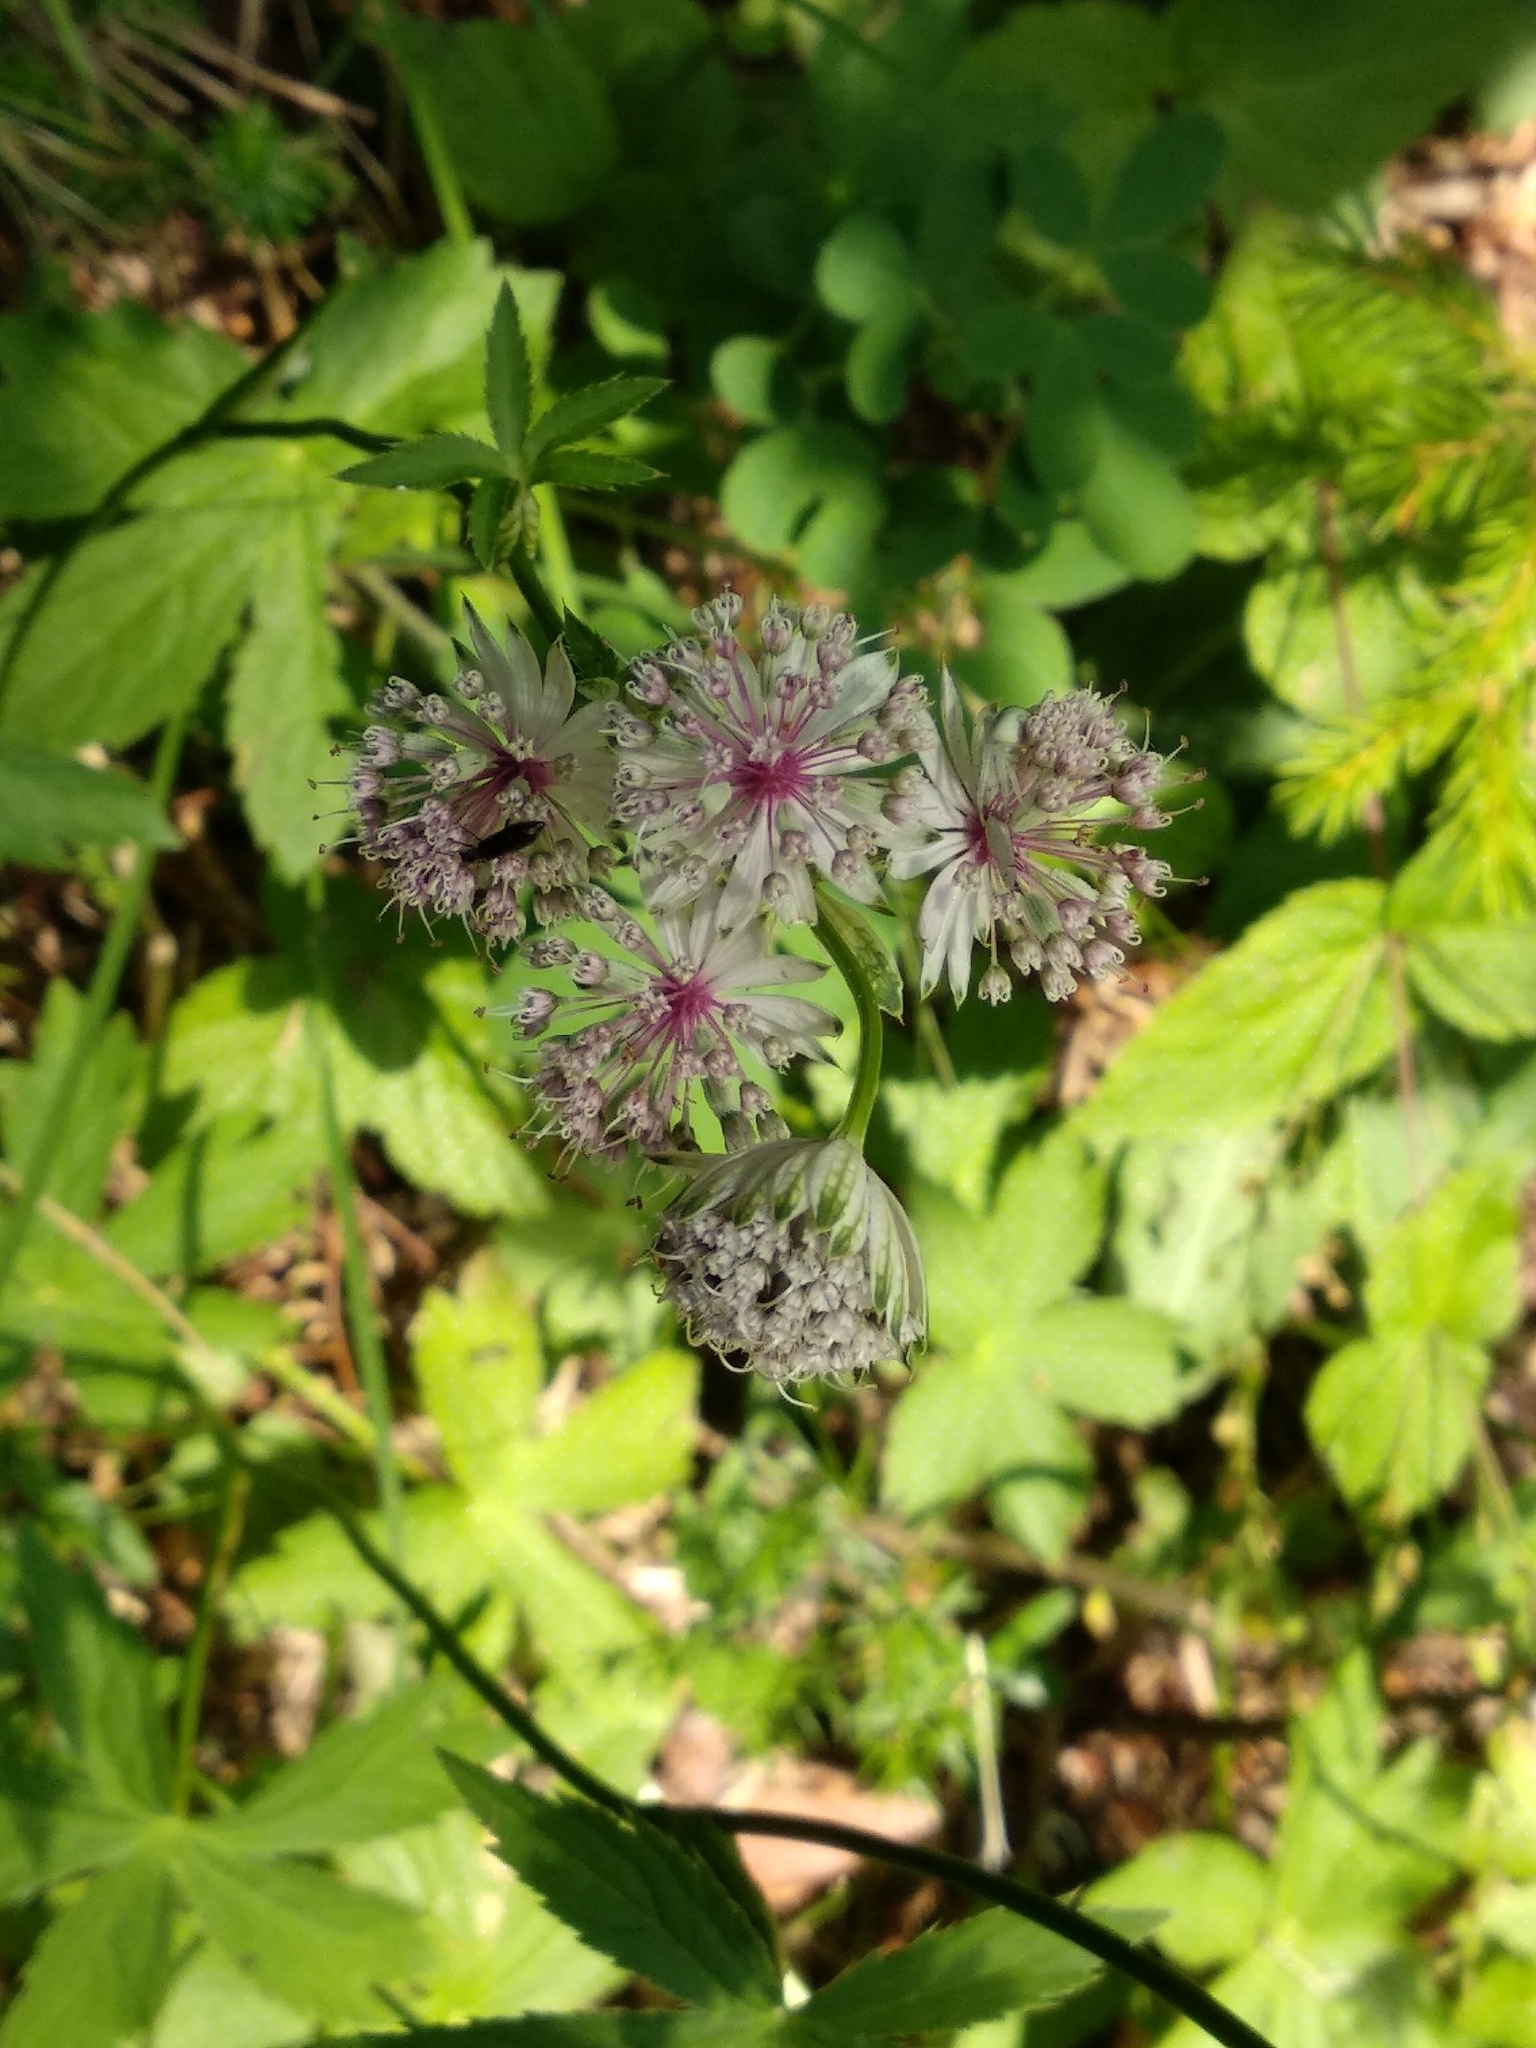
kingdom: Plantae
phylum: Tracheophyta
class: Magnoliopsida
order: Apiales
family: Apiaceae
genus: Astrantia
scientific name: Astrantia major
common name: Greater masterwort
